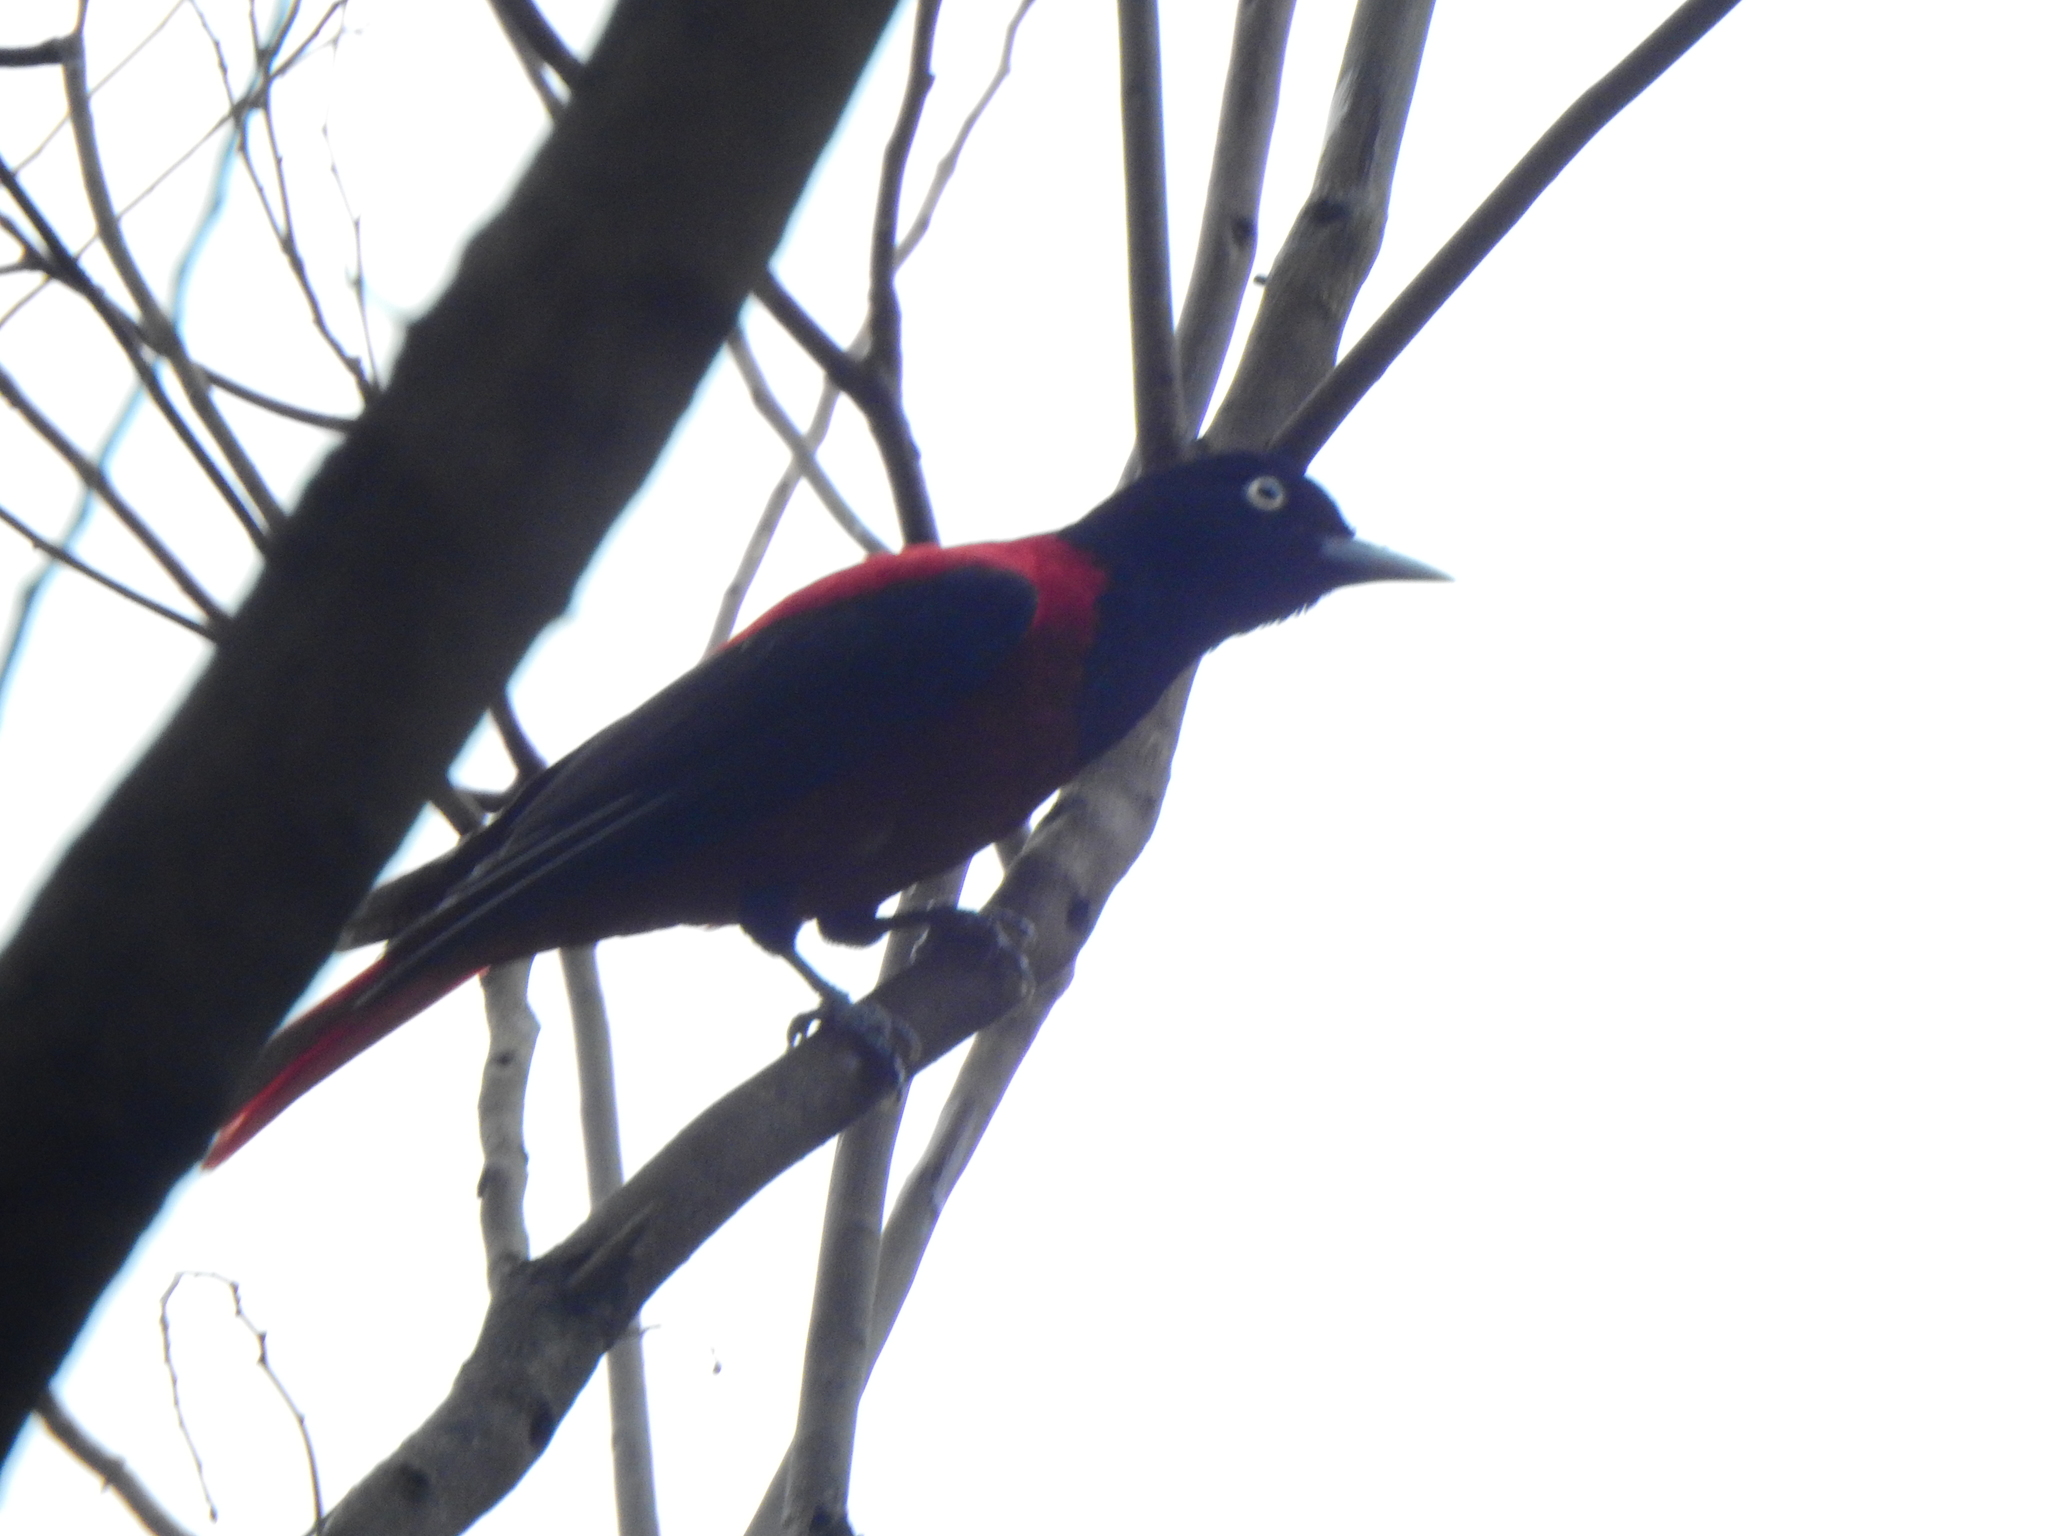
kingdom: Animalia
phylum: Chordata
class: Aves
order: Passeriformes
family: Oriolidae
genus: Oriolus
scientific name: Oriolus traillii
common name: Maroon oriole
